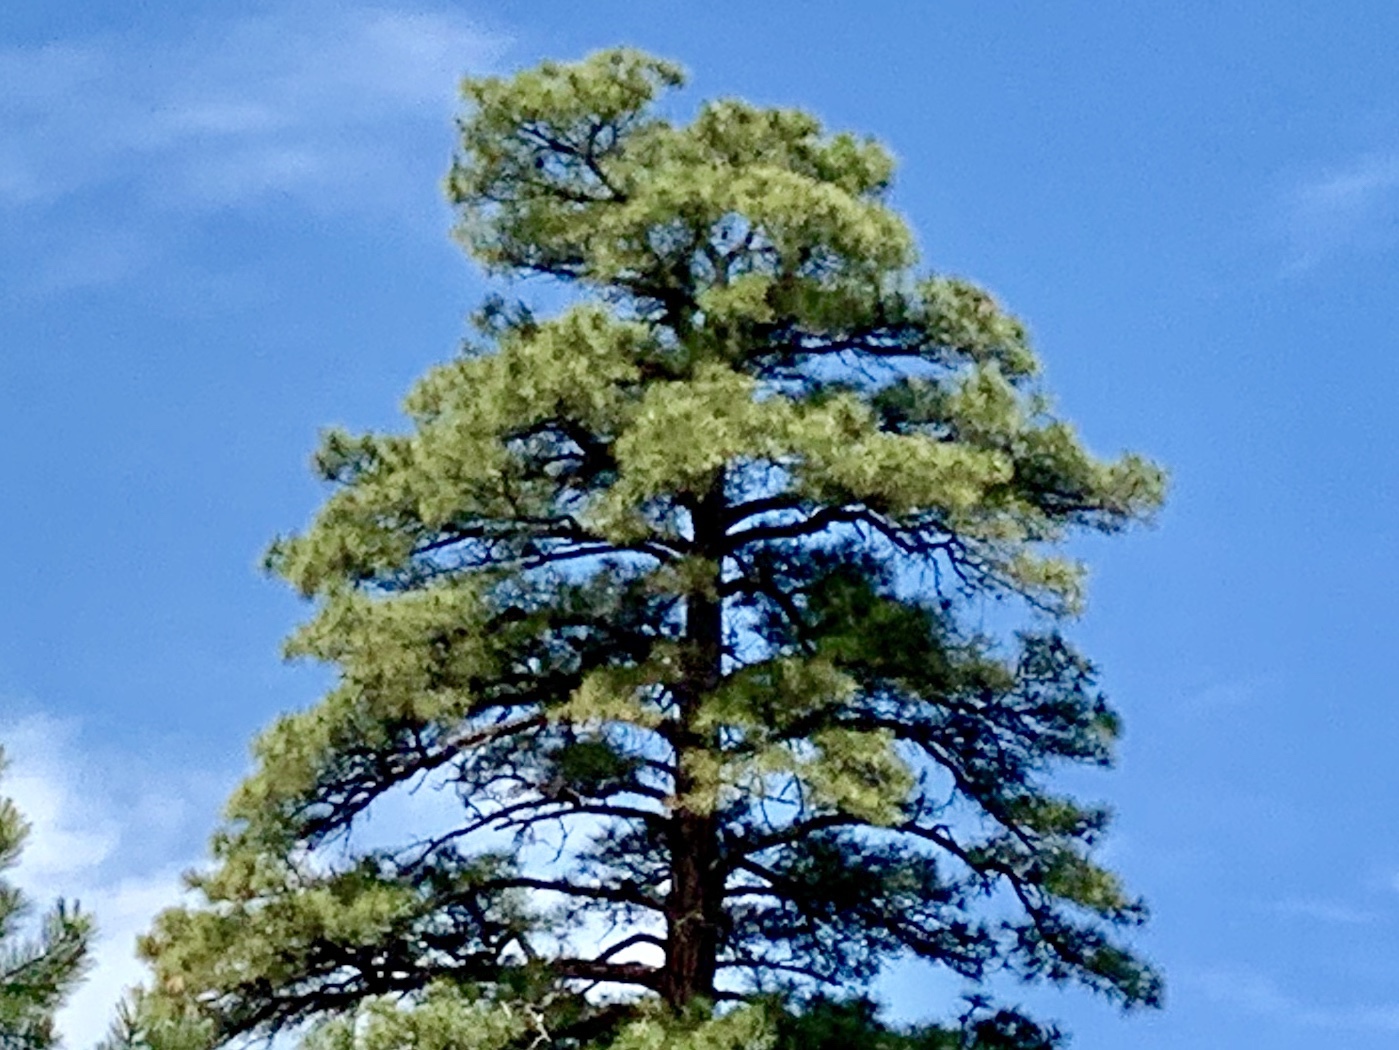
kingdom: Plantae
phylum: Tracheophyta
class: Pinopsida
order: Pinales
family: Pinaceae
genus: Pinus
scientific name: Pinus ponderosa
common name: Western yellow-pine
